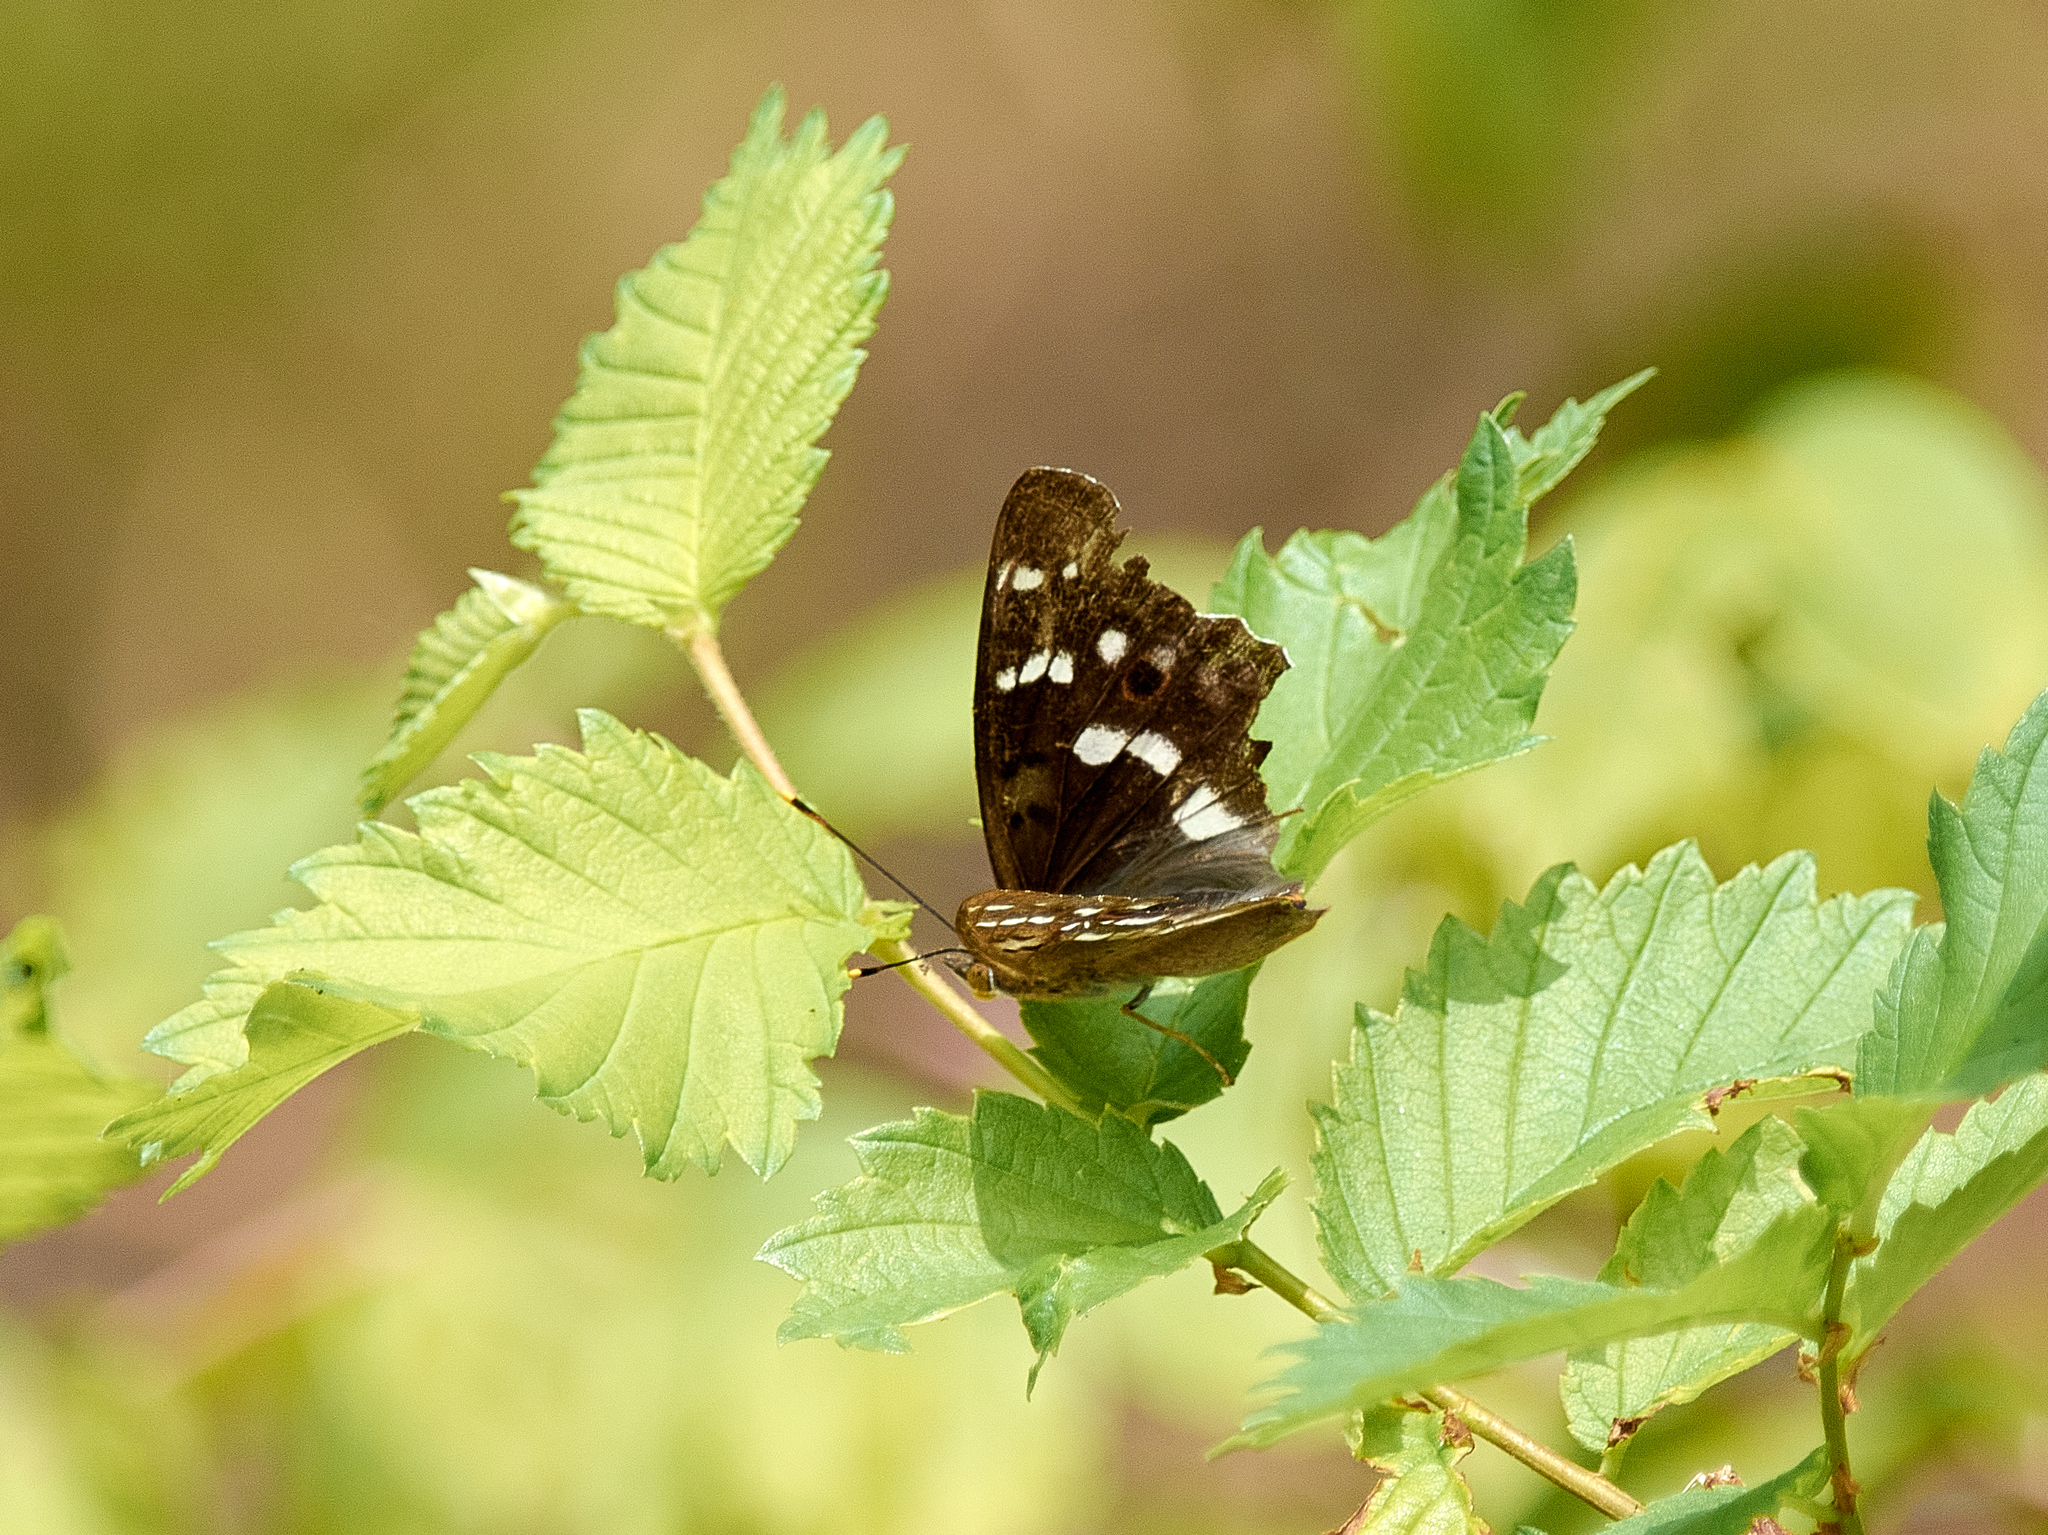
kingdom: Animalia
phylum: Arthropoda
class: Insecta
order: Lepidoptera
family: Nymphalidae
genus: Apatura
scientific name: Apatura ilia
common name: Lesser purple emperor
